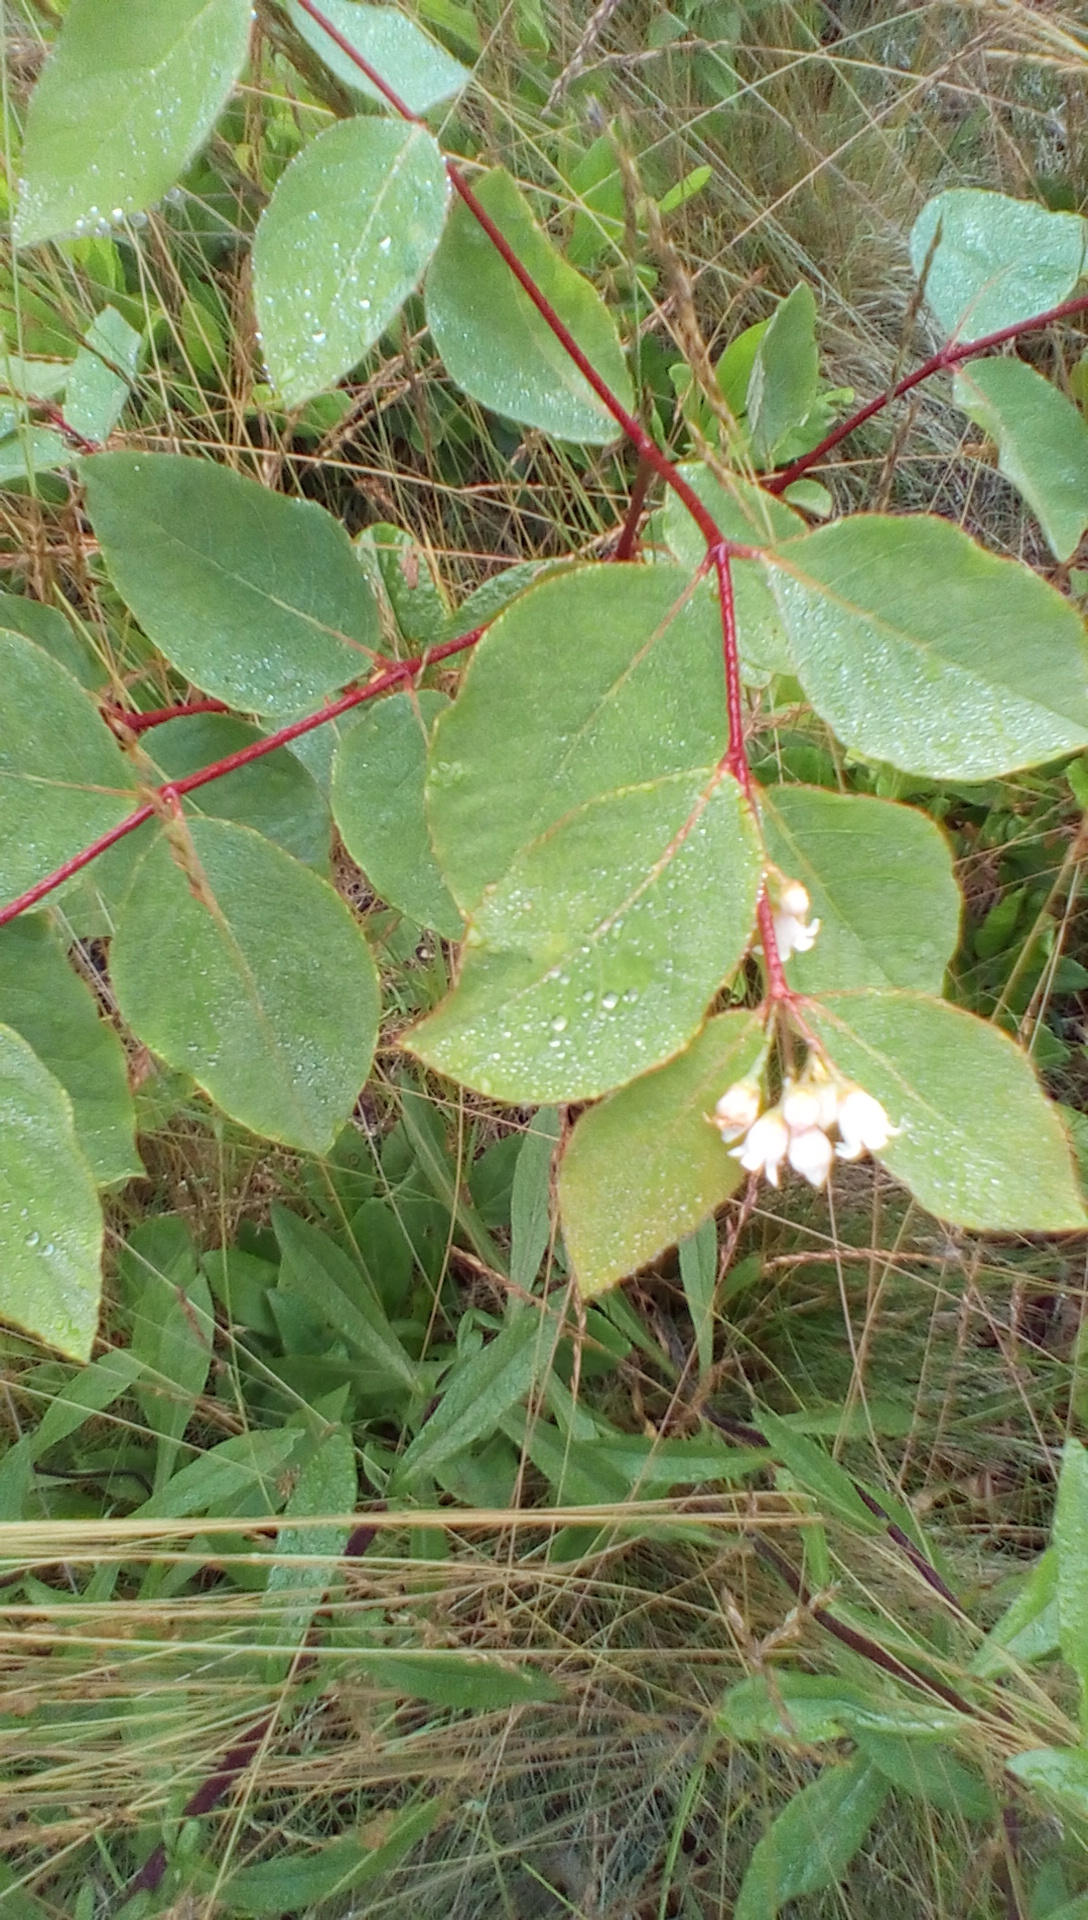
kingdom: Plantae
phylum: Tracheophyta
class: Magnoliopsida
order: Gentianales
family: Apocynaceae
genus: Apocynum
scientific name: Apocynum androsaemifolium
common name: Spreading dogbane
